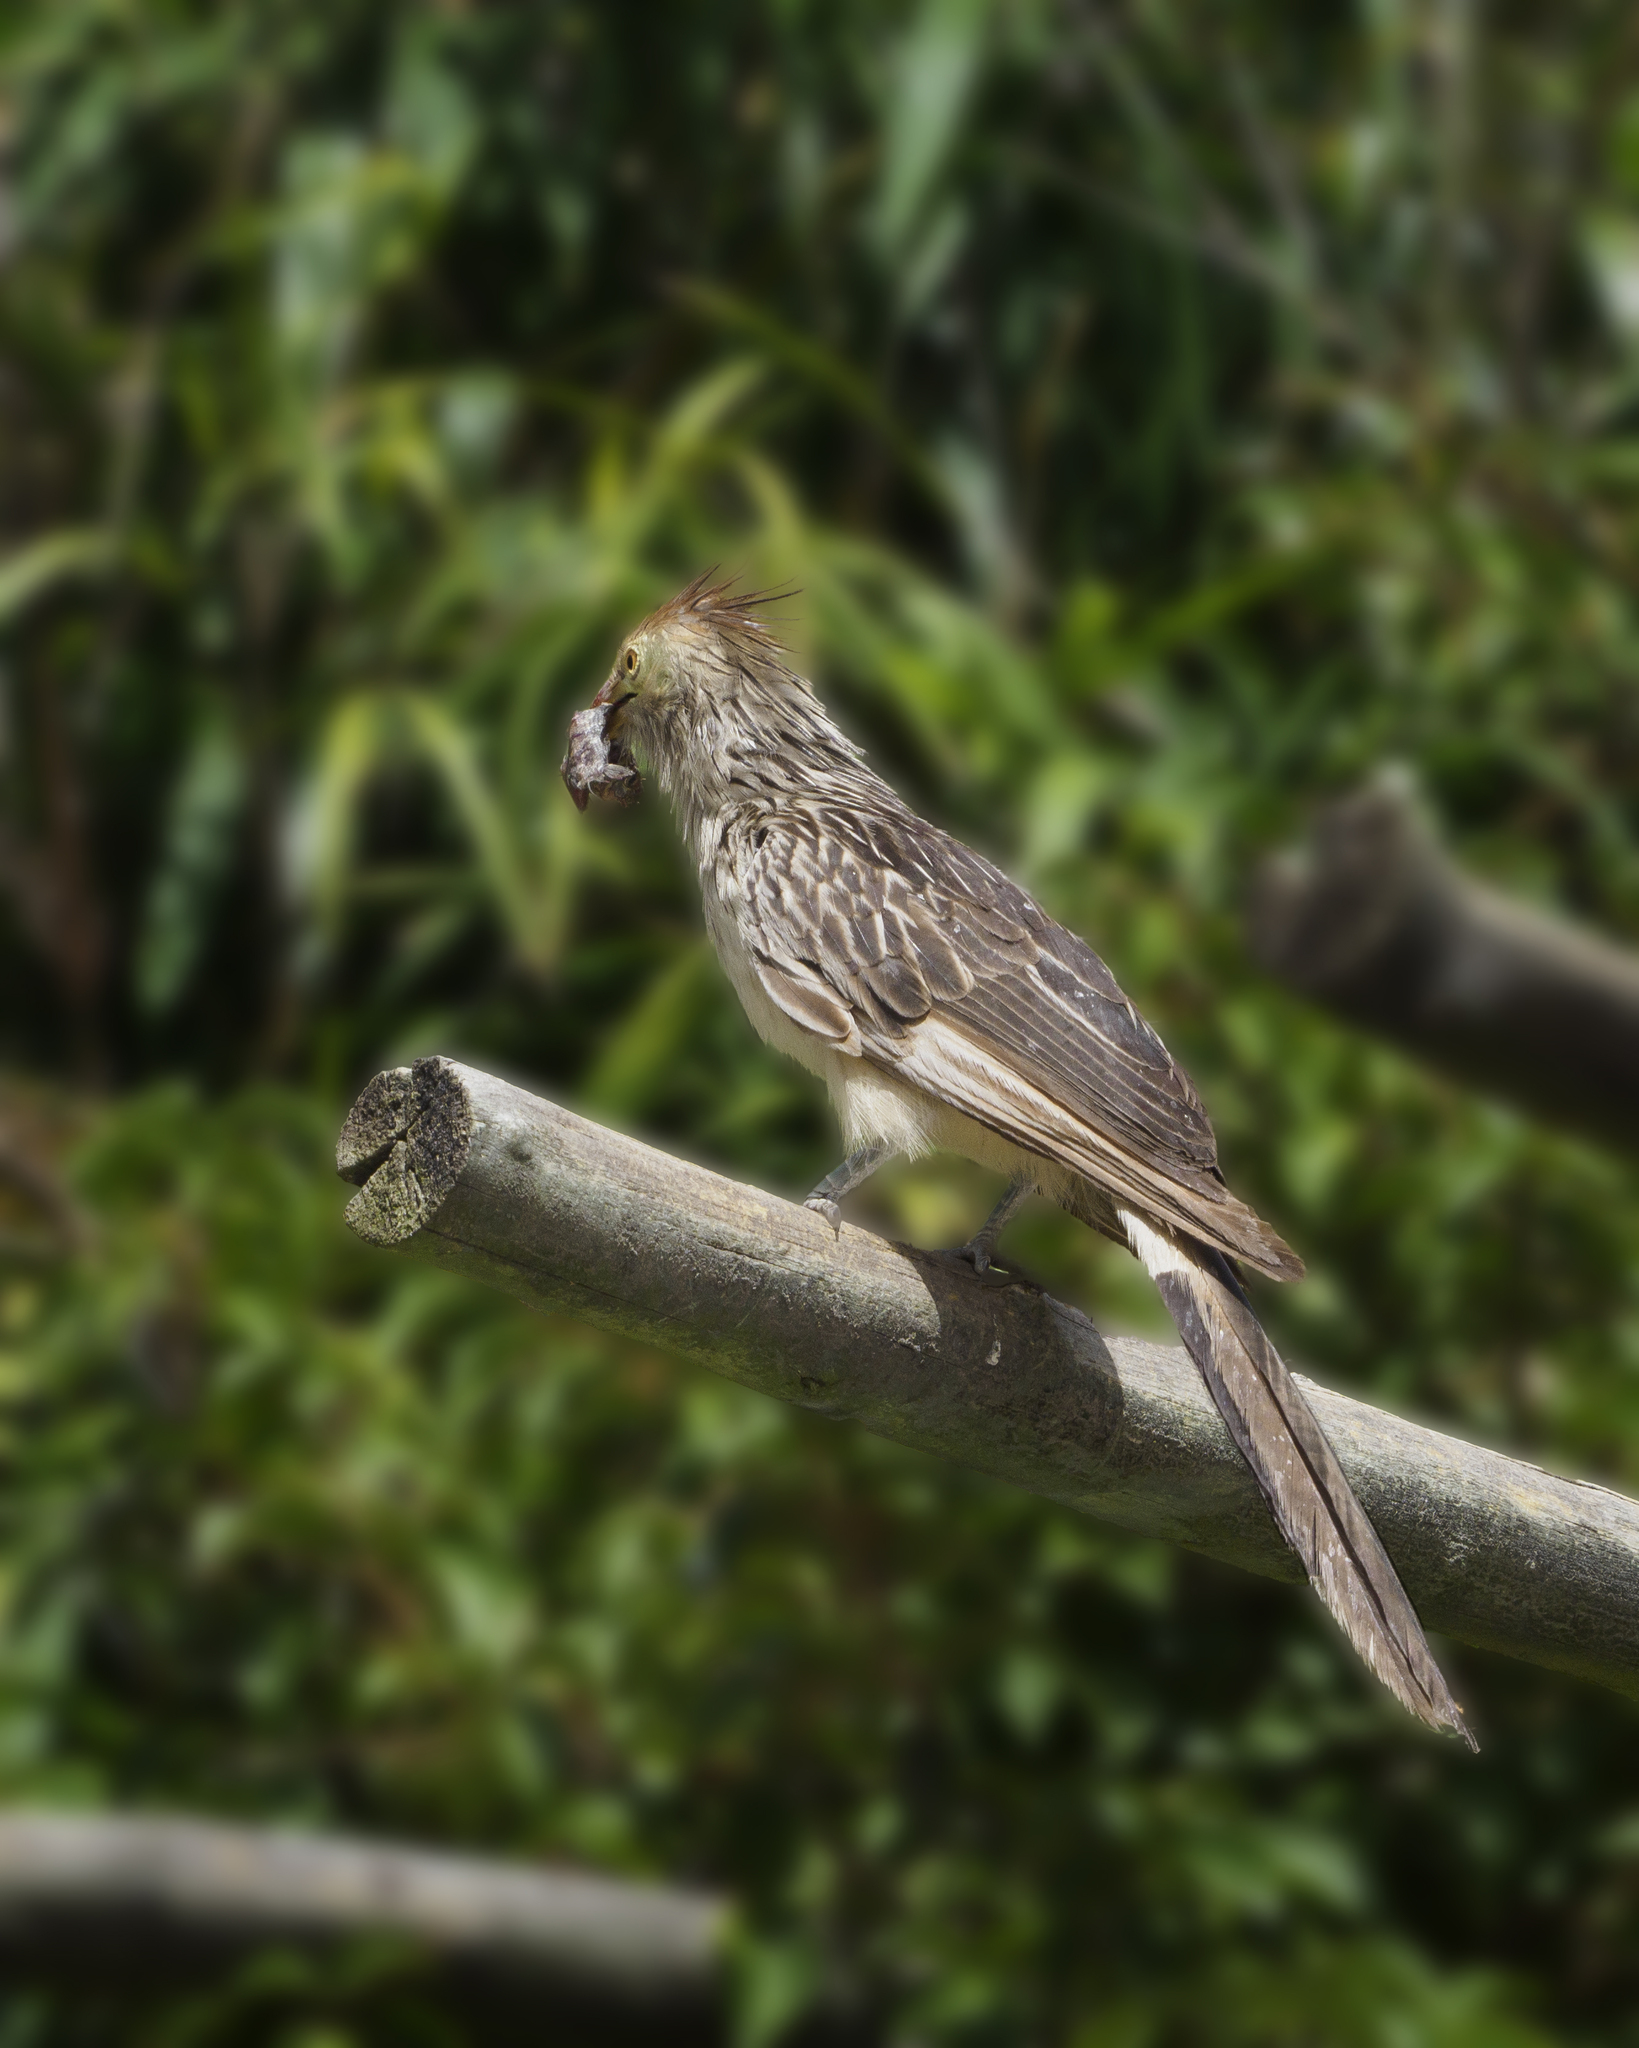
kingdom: Animalia
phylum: Chordata
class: Aves
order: Cuculiformes
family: Cuculidae
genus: Guira
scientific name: Guira guira
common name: Guira cuckoo
